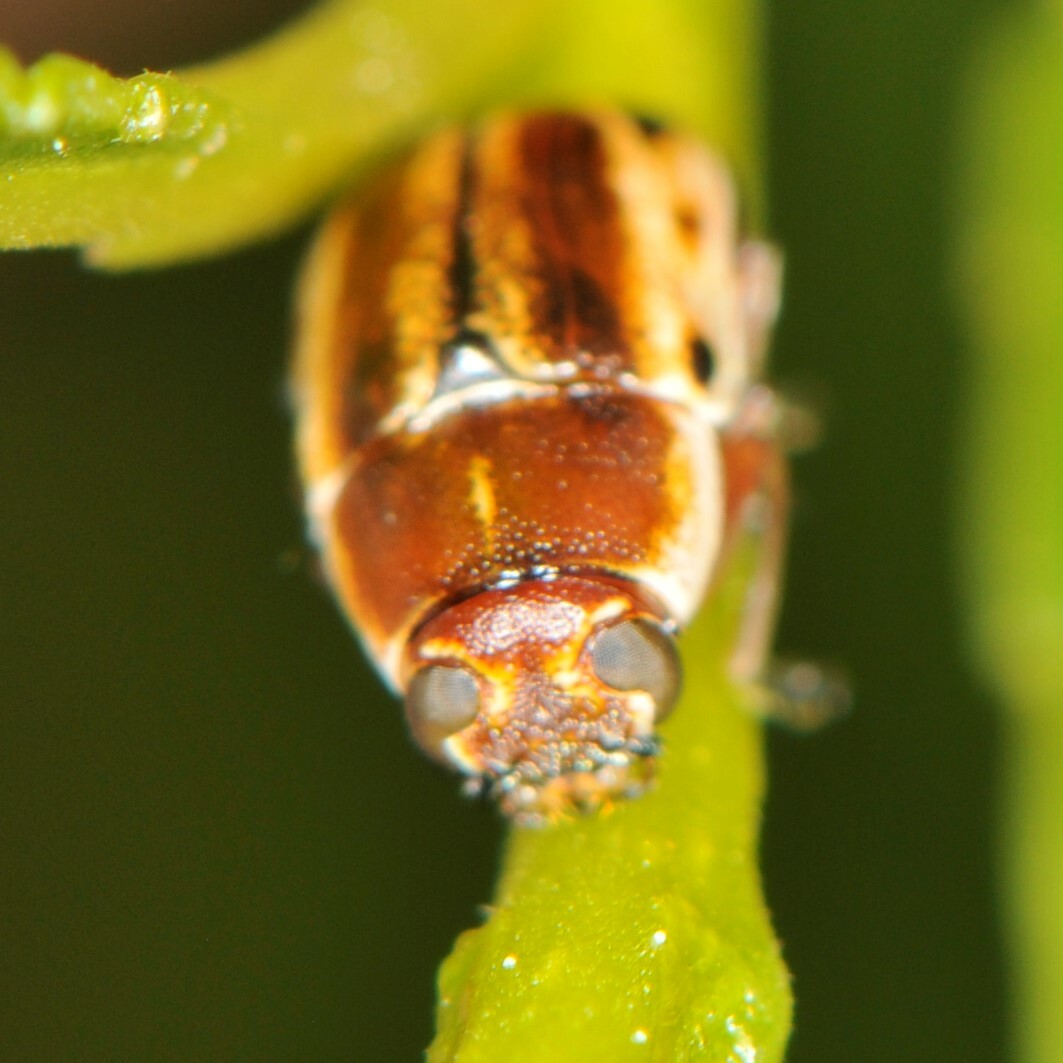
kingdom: Animalia
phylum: Arthropoda
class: Insecta
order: Coleoptera
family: Chrysomelidae
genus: Pachybrachis
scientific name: Pachybrachis bivittatus
